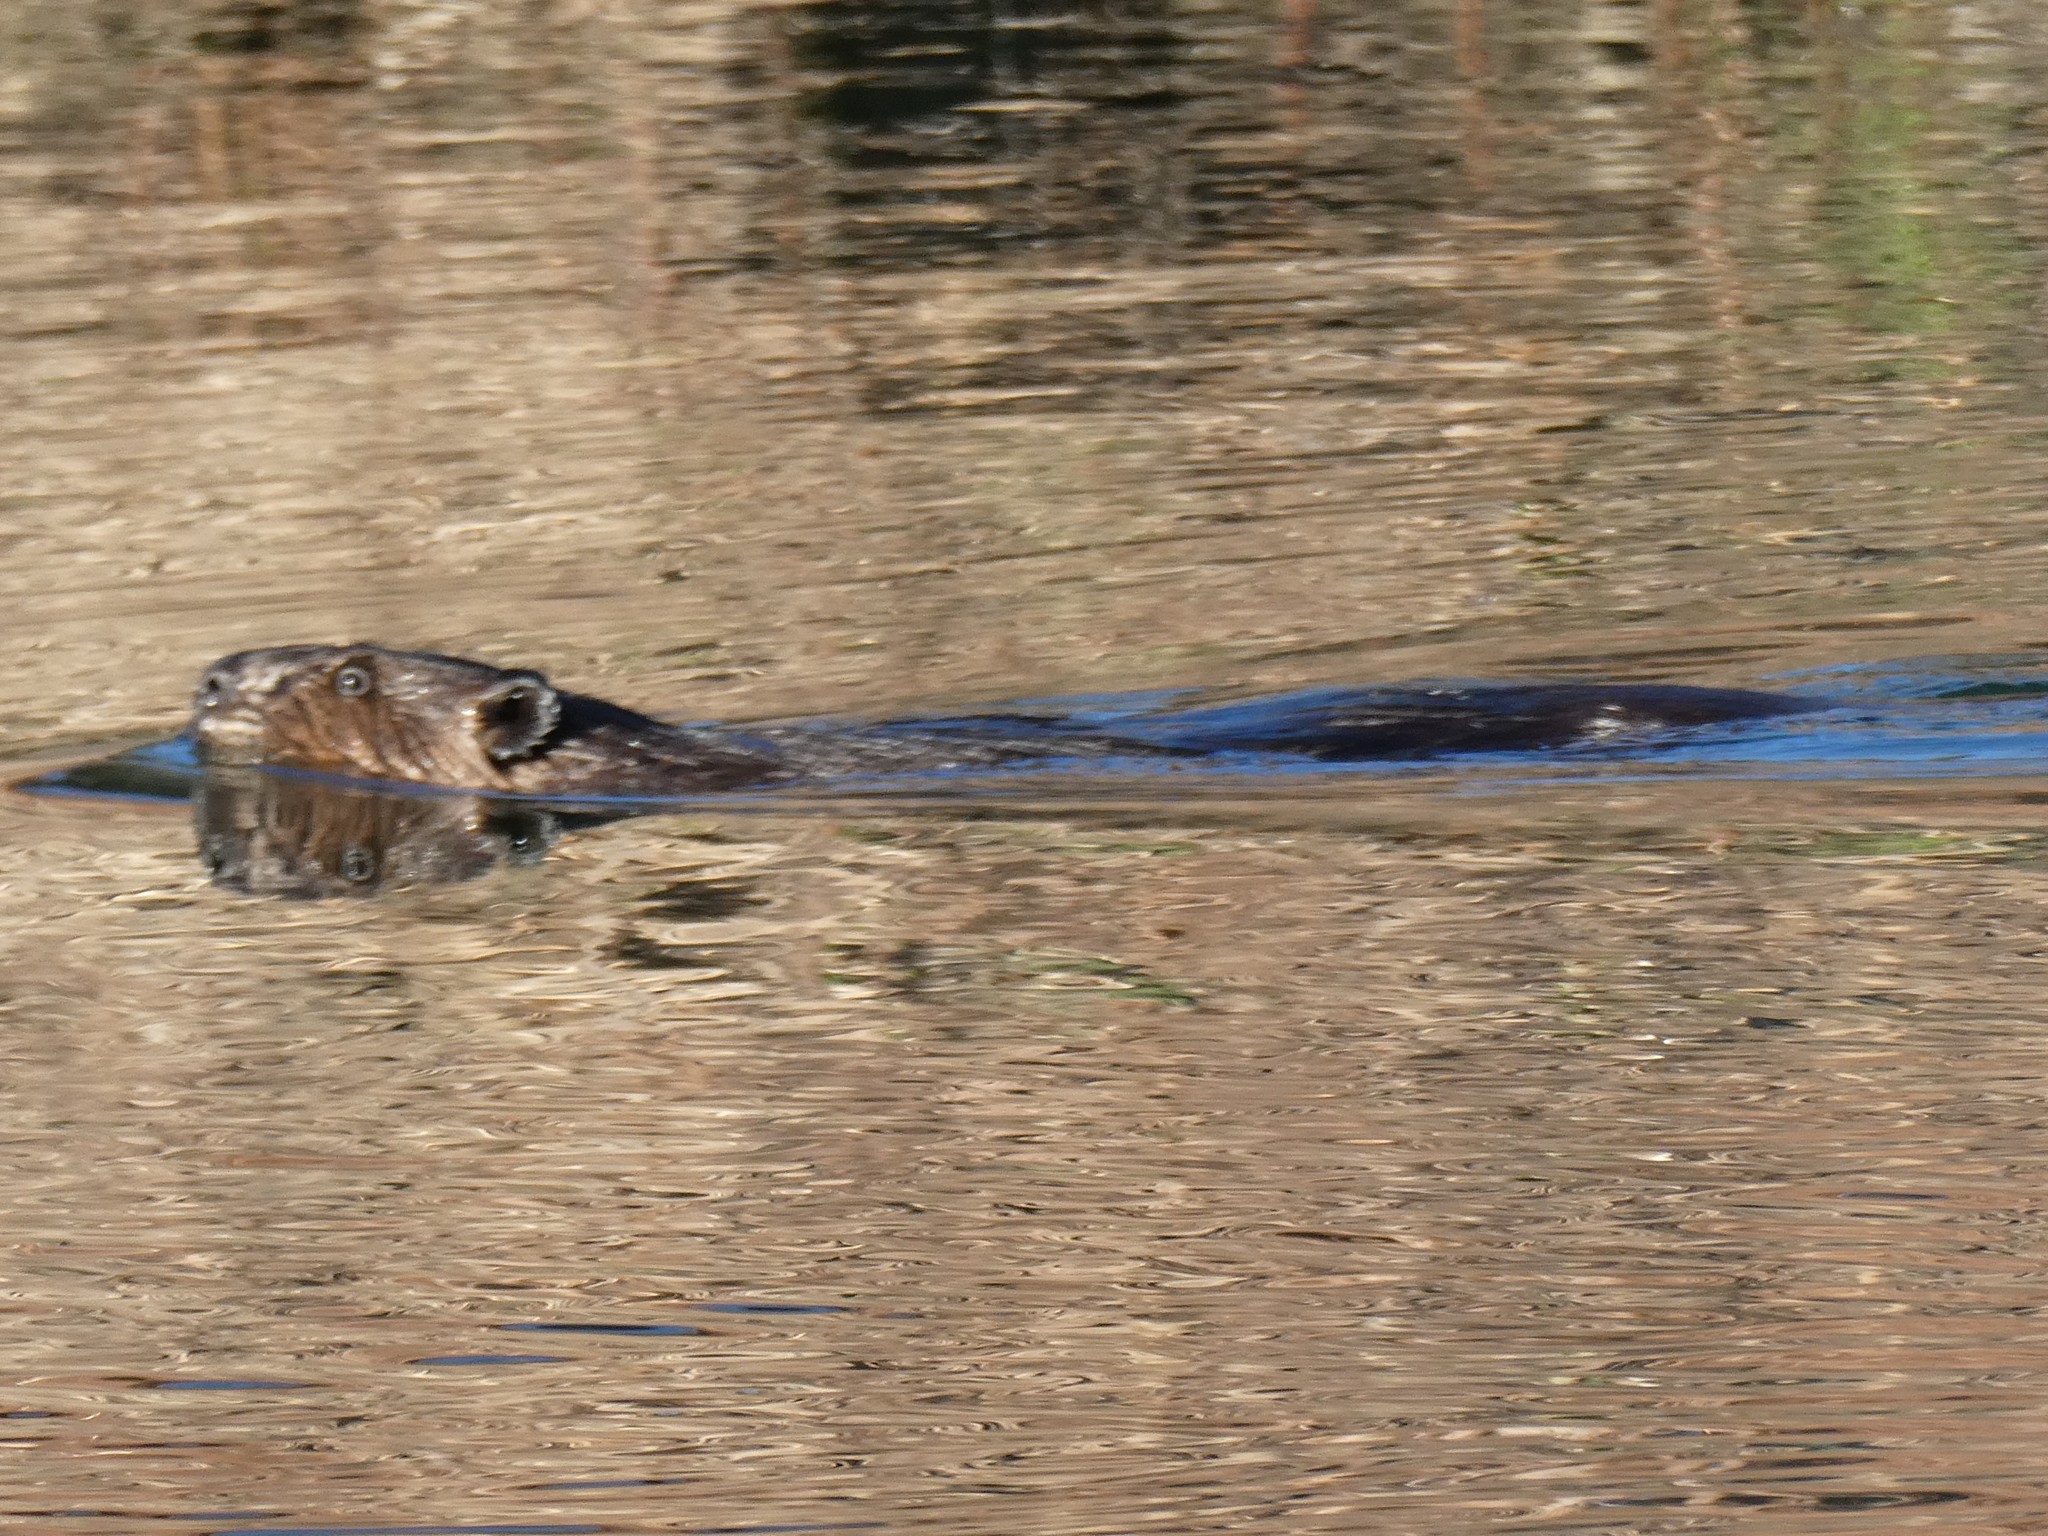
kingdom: Animalia
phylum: Chordata
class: Mammalia
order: Rodentia
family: Castoridae
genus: Castor
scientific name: Castor canadensis
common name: American beaver
